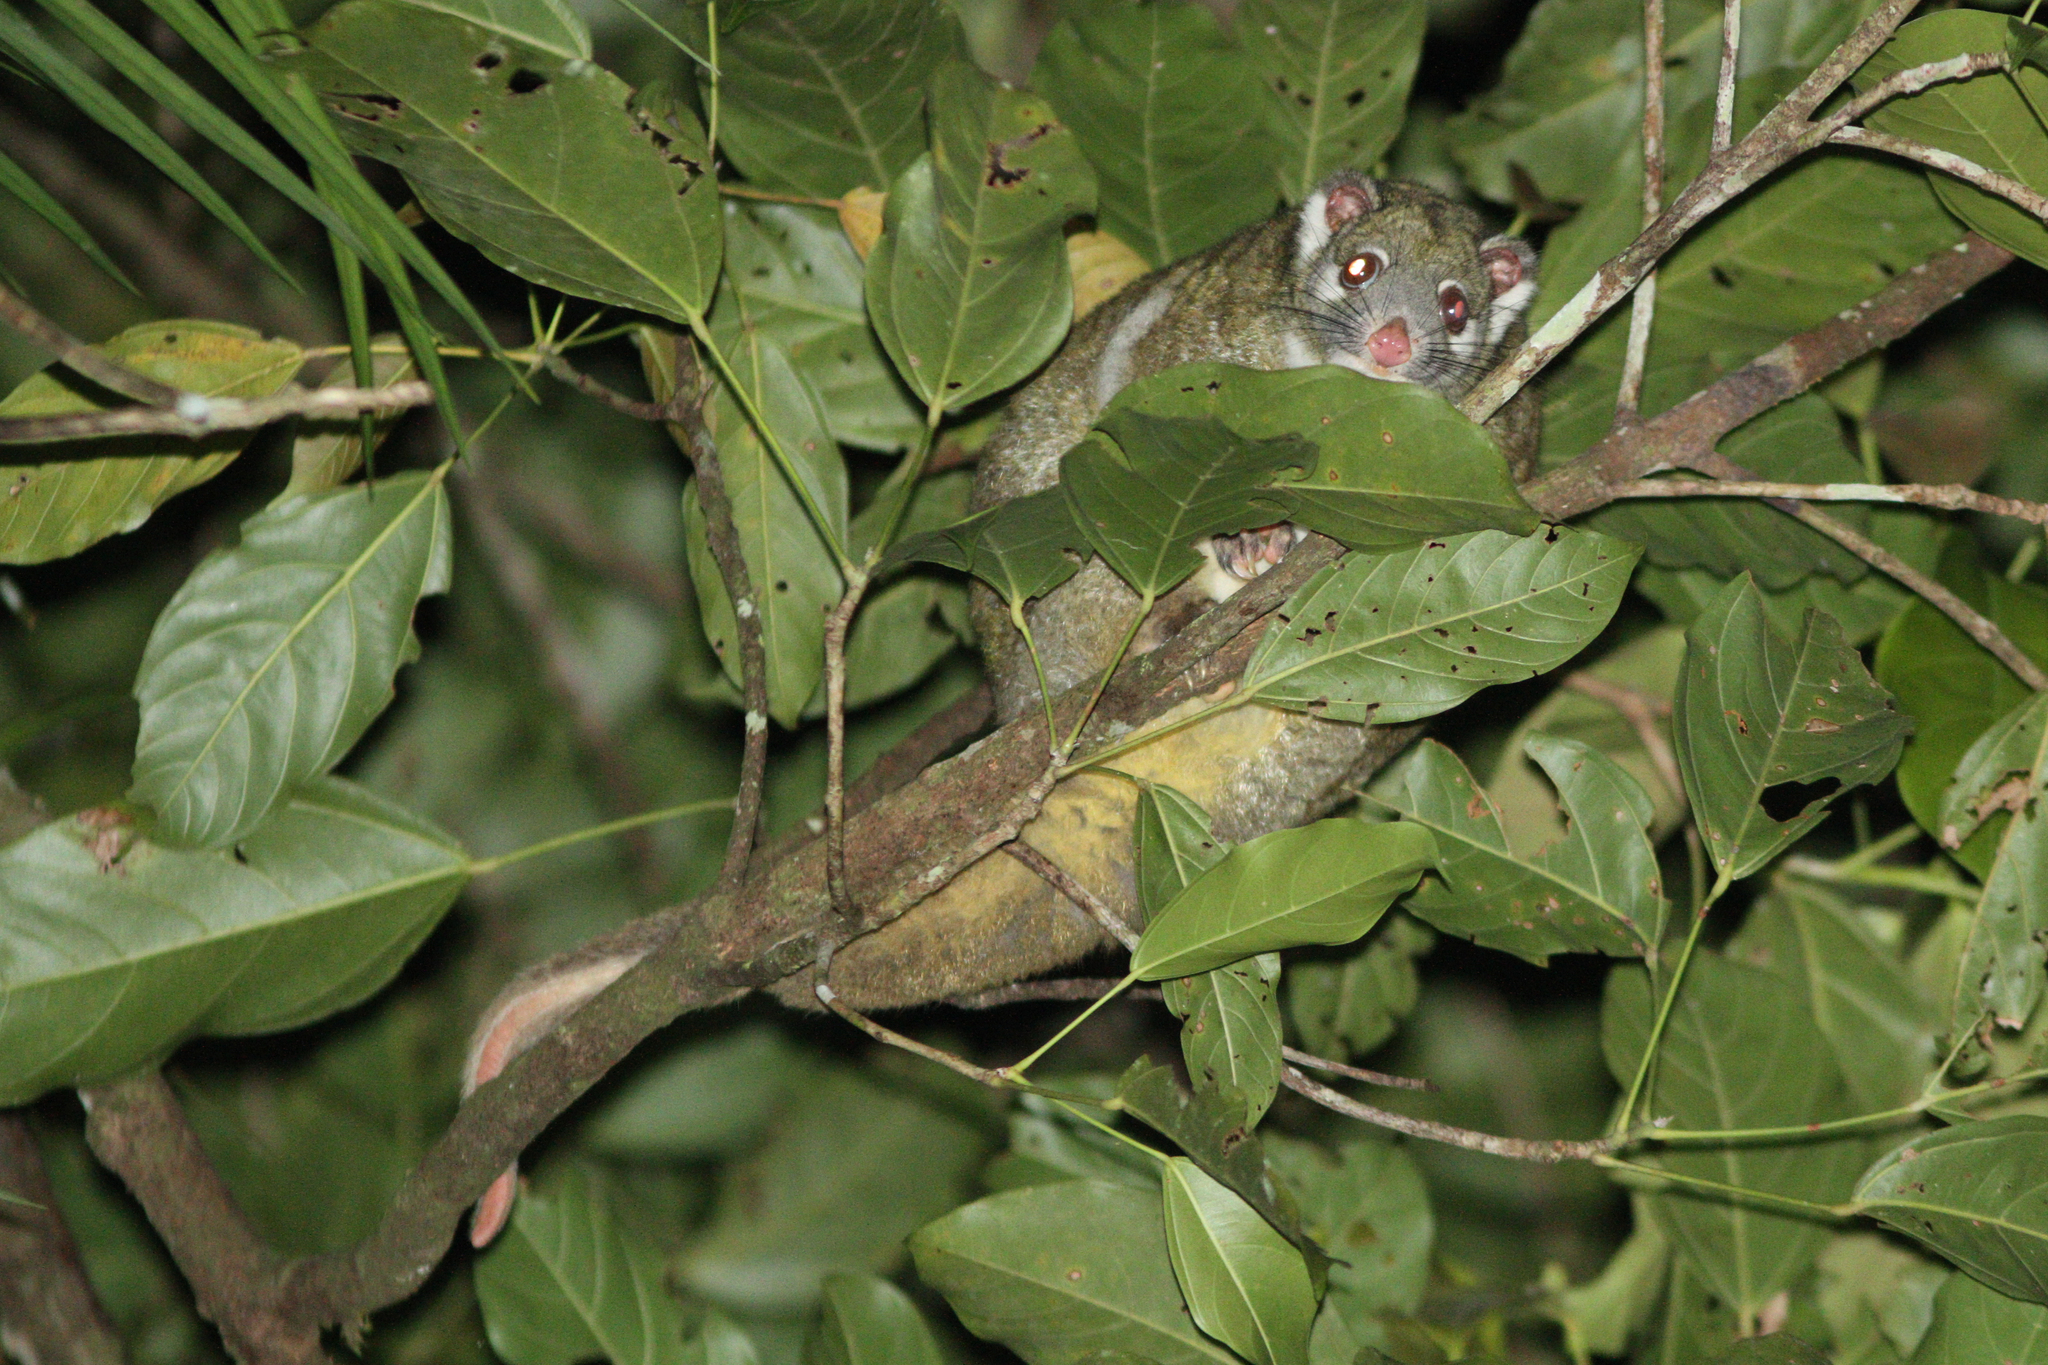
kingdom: Animalia
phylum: Chordata
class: Mammalia
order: Diprotodontia
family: Pseudocheiridae
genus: Pseudochirops
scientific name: Pseudochirops archeri
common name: Green ringtail
